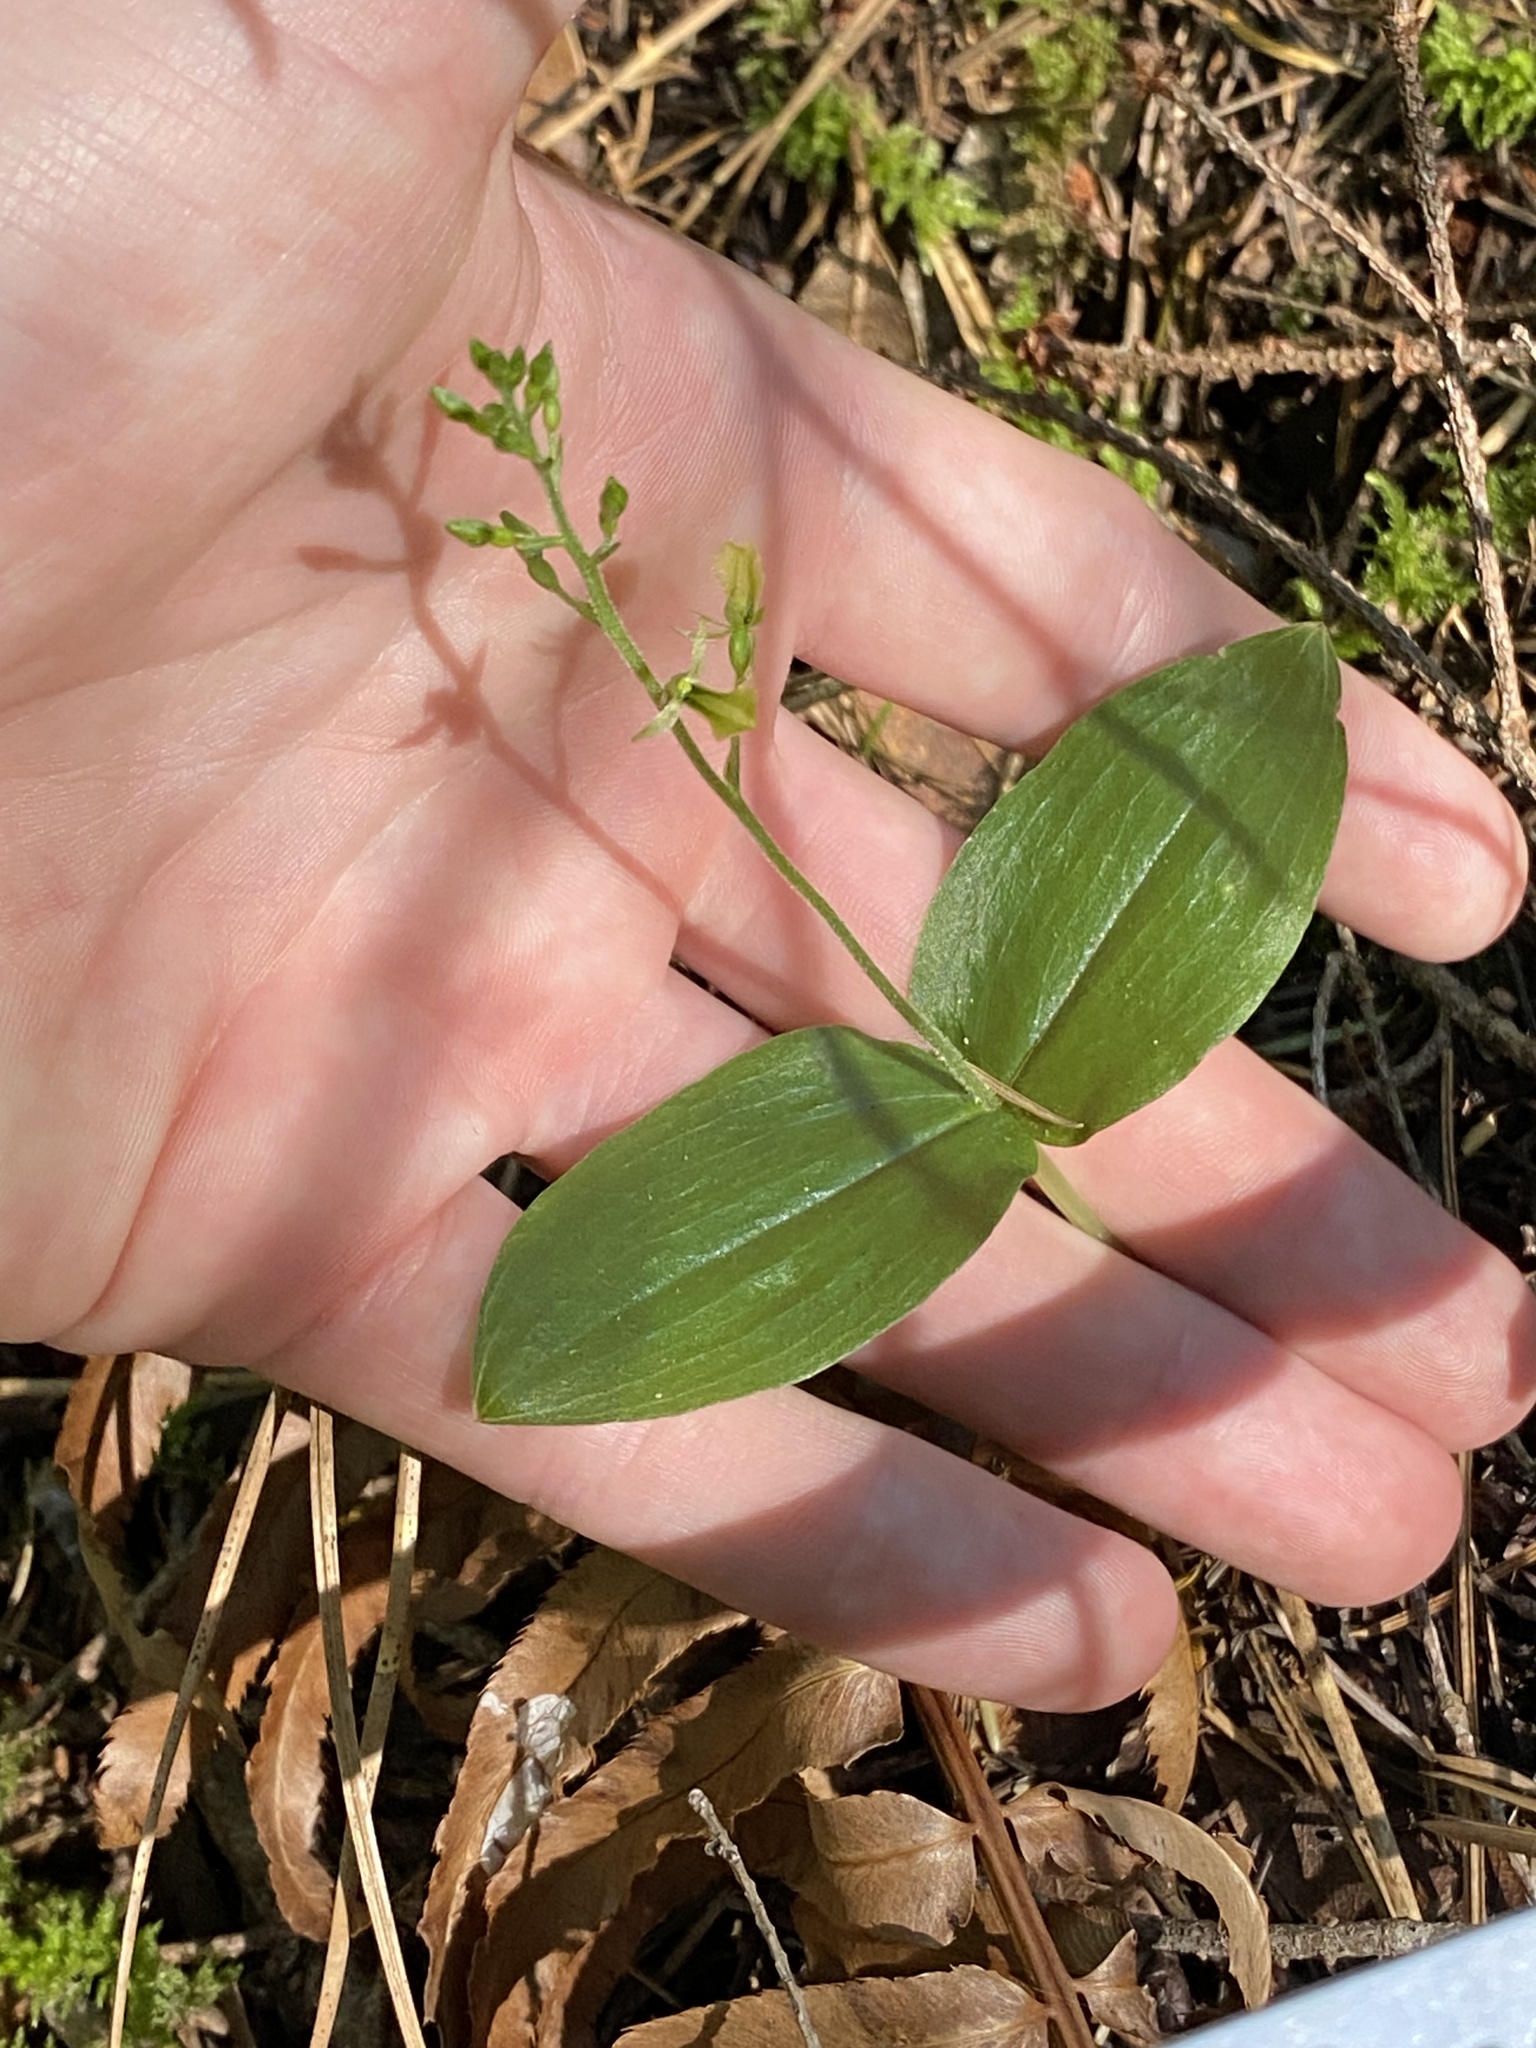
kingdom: Plantae
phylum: Tracheophyta
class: Liliopsida
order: Asparagales
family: Orchidaceae
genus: Neottia
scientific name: Neottia banksiana
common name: Northwestern twayblade
